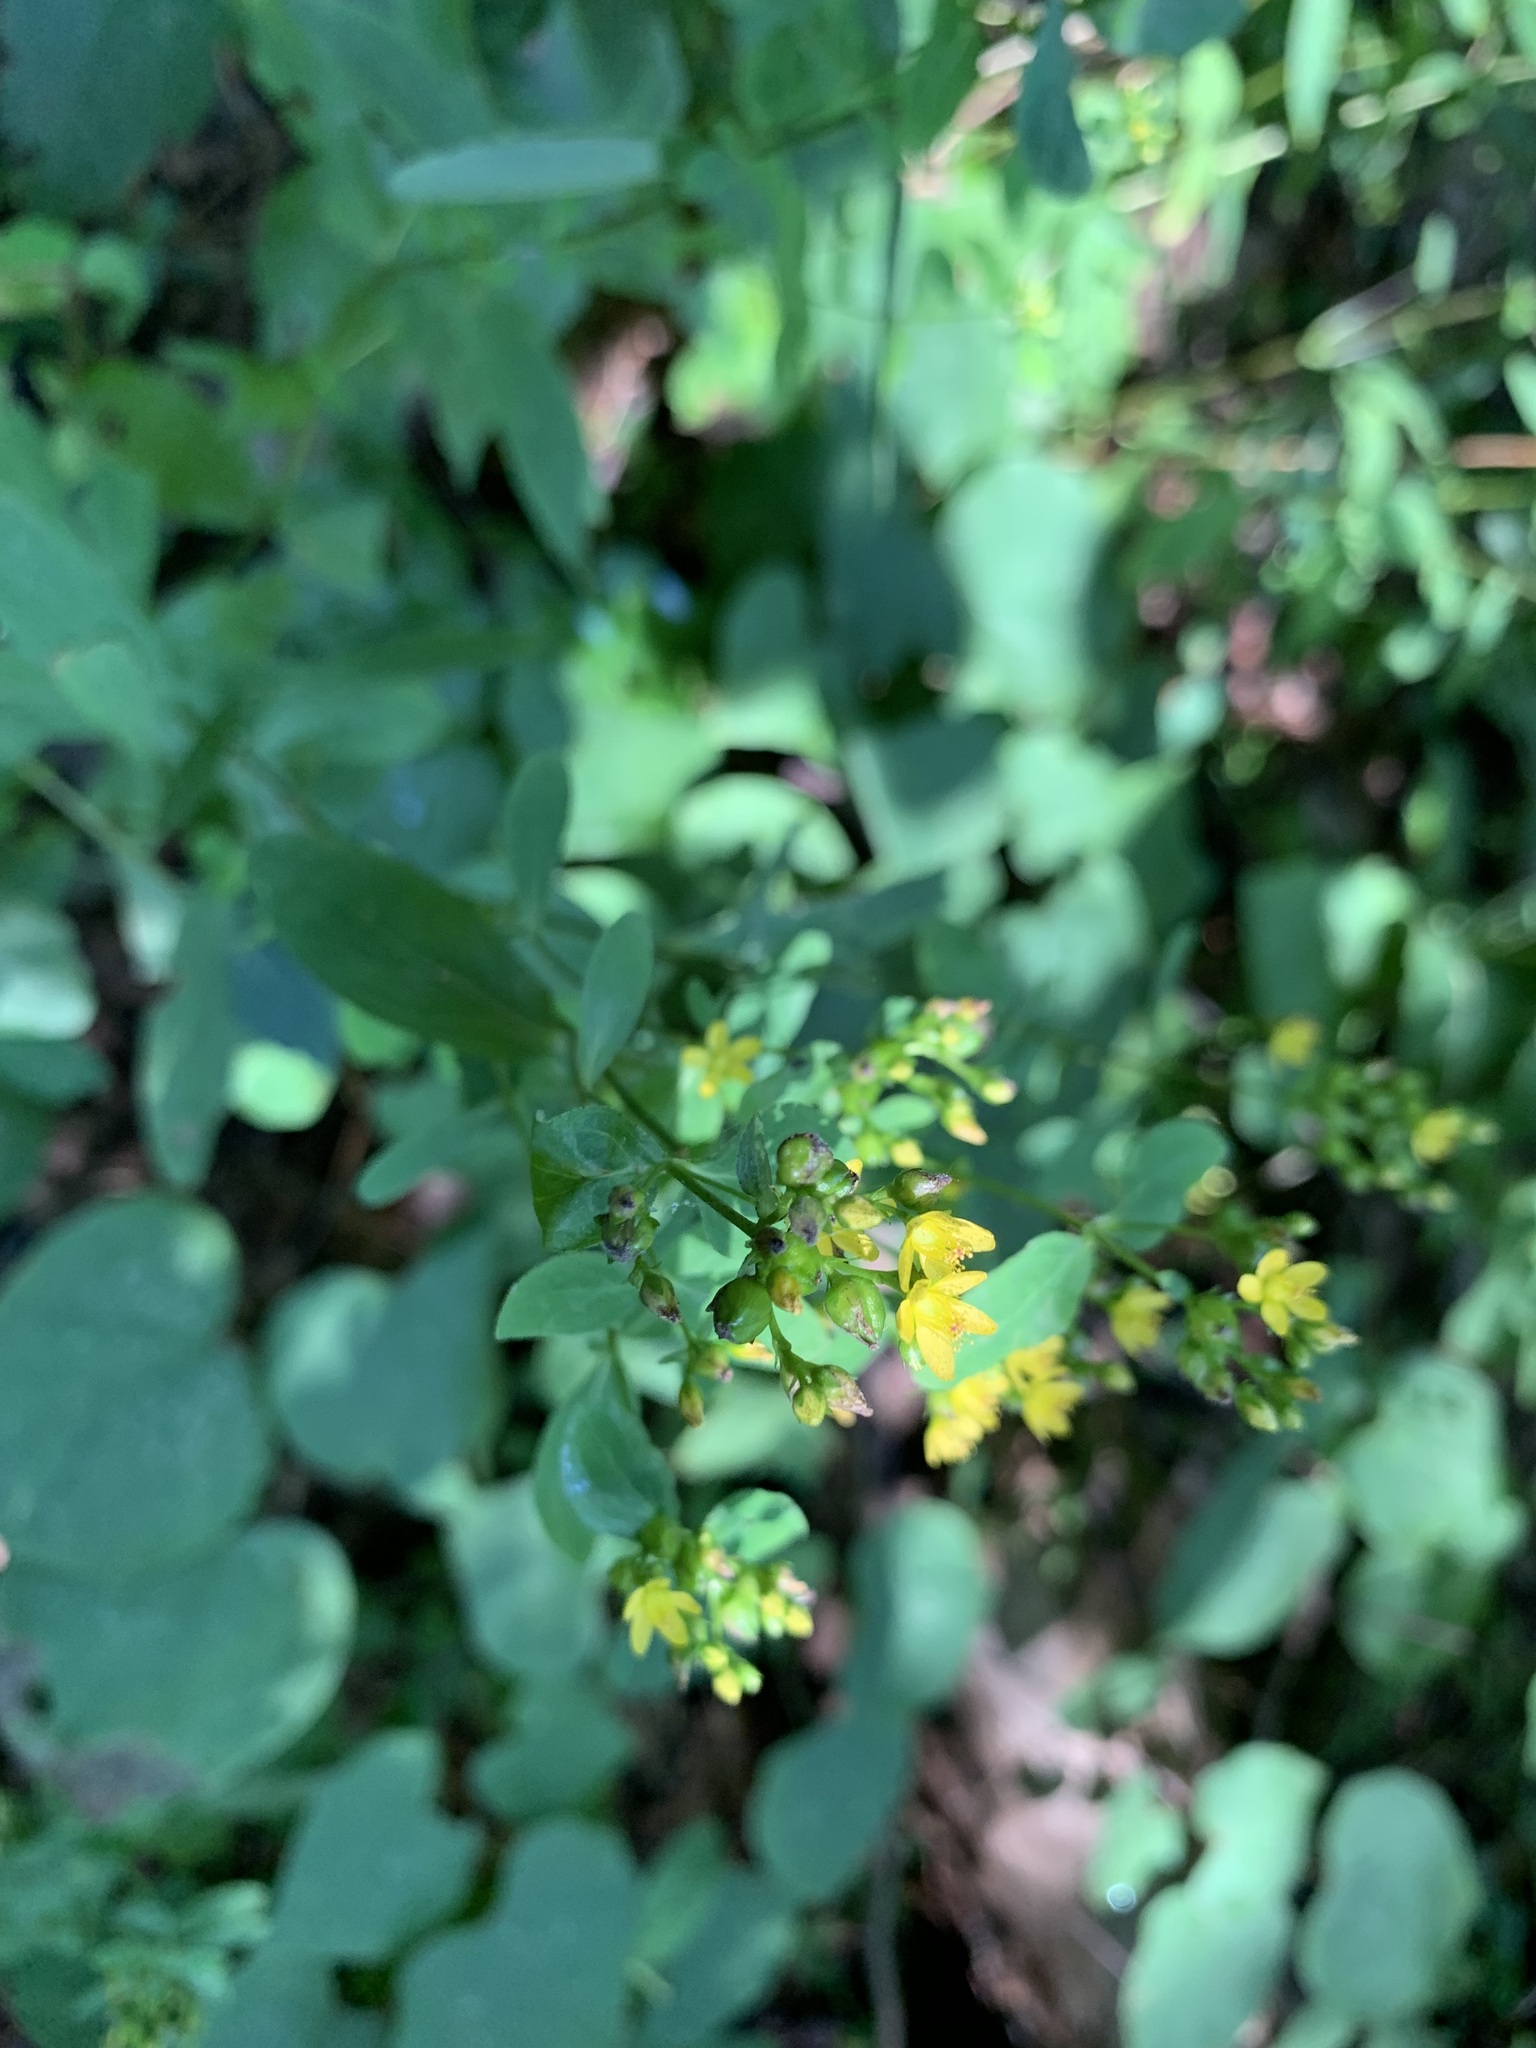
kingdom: Plantae
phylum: Tracheophyta
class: Magnoliopsida
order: Malpighiales
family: Hypericaceae
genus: Hypericum
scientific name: Hypericum punctatum
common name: Spotted st. john's-wort
